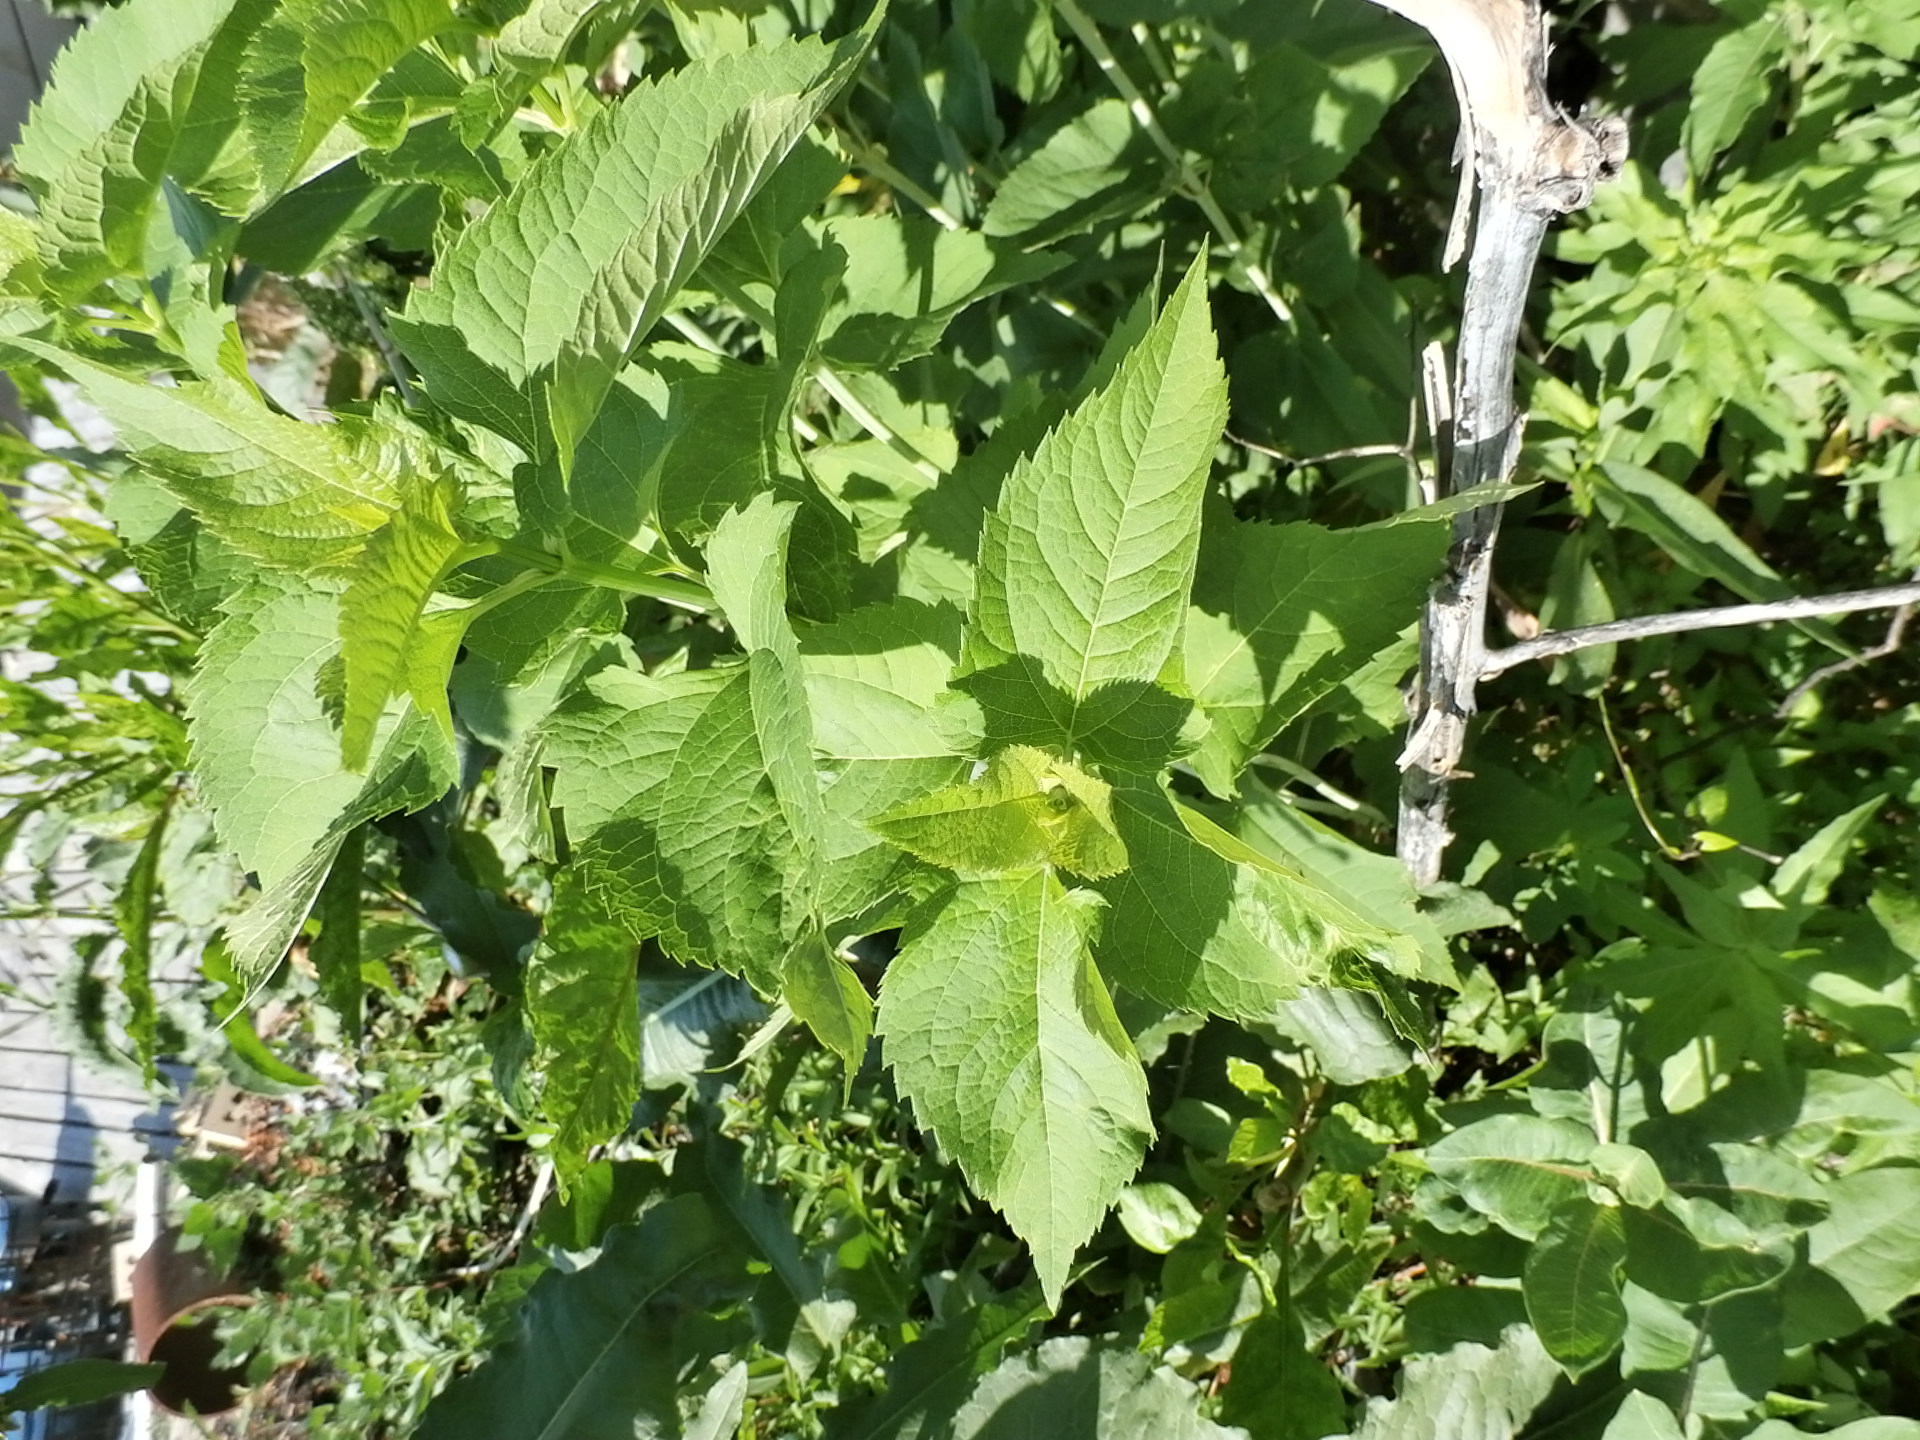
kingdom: Plantae
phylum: Tracheophyta
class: Magnoliopsida
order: Asterales
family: Asteraceae
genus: Ageratina
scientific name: Ageratina altissima
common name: White snakeroot
